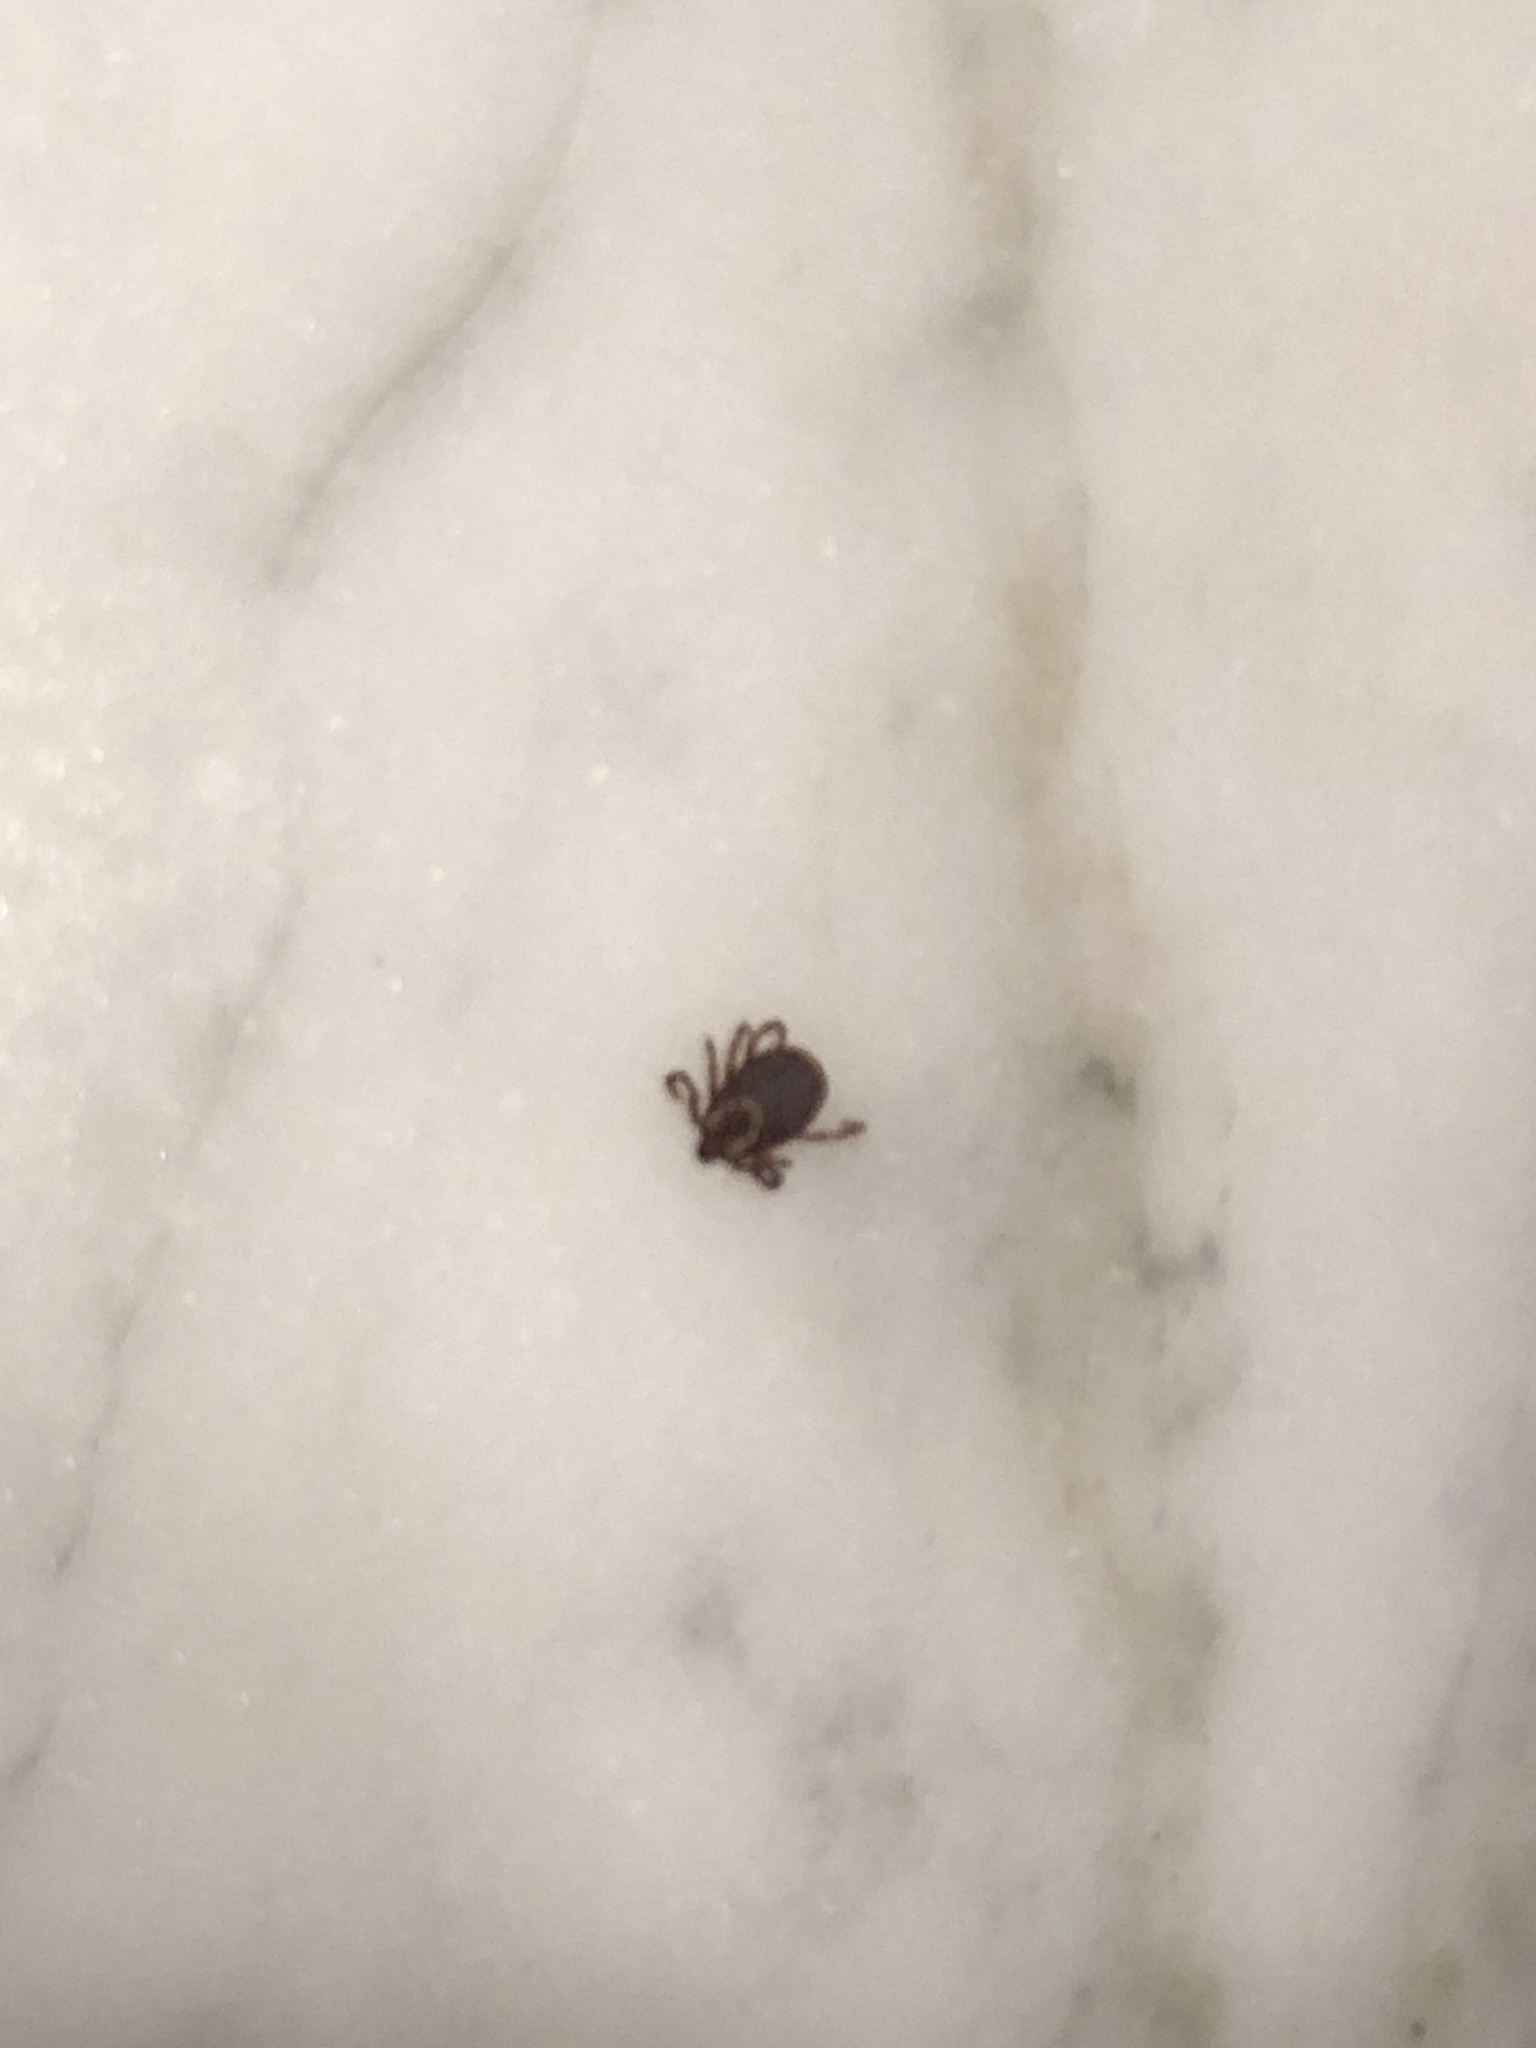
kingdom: Animalia
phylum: Arthropoda
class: Arachnida
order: Ixodida
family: Ixodidae
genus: Dermacentor
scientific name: Dermacentor variabilis
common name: American dog tick
